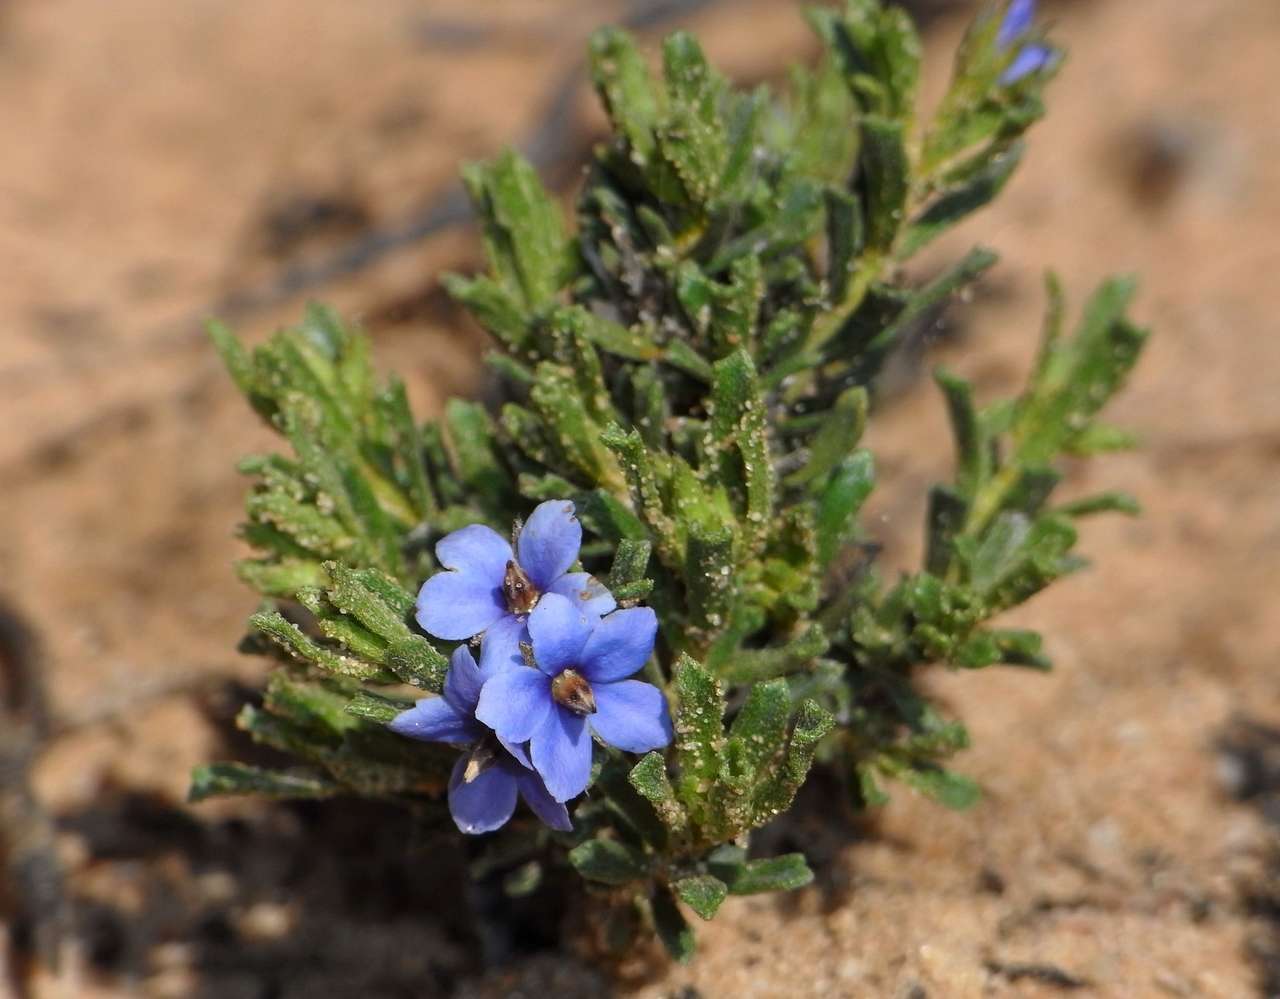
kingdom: Plantae
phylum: Tracheophyta
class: Magnoliopsida
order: Boraginales
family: Ehretiaceae
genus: Halgania
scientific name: Halgania cyanea
